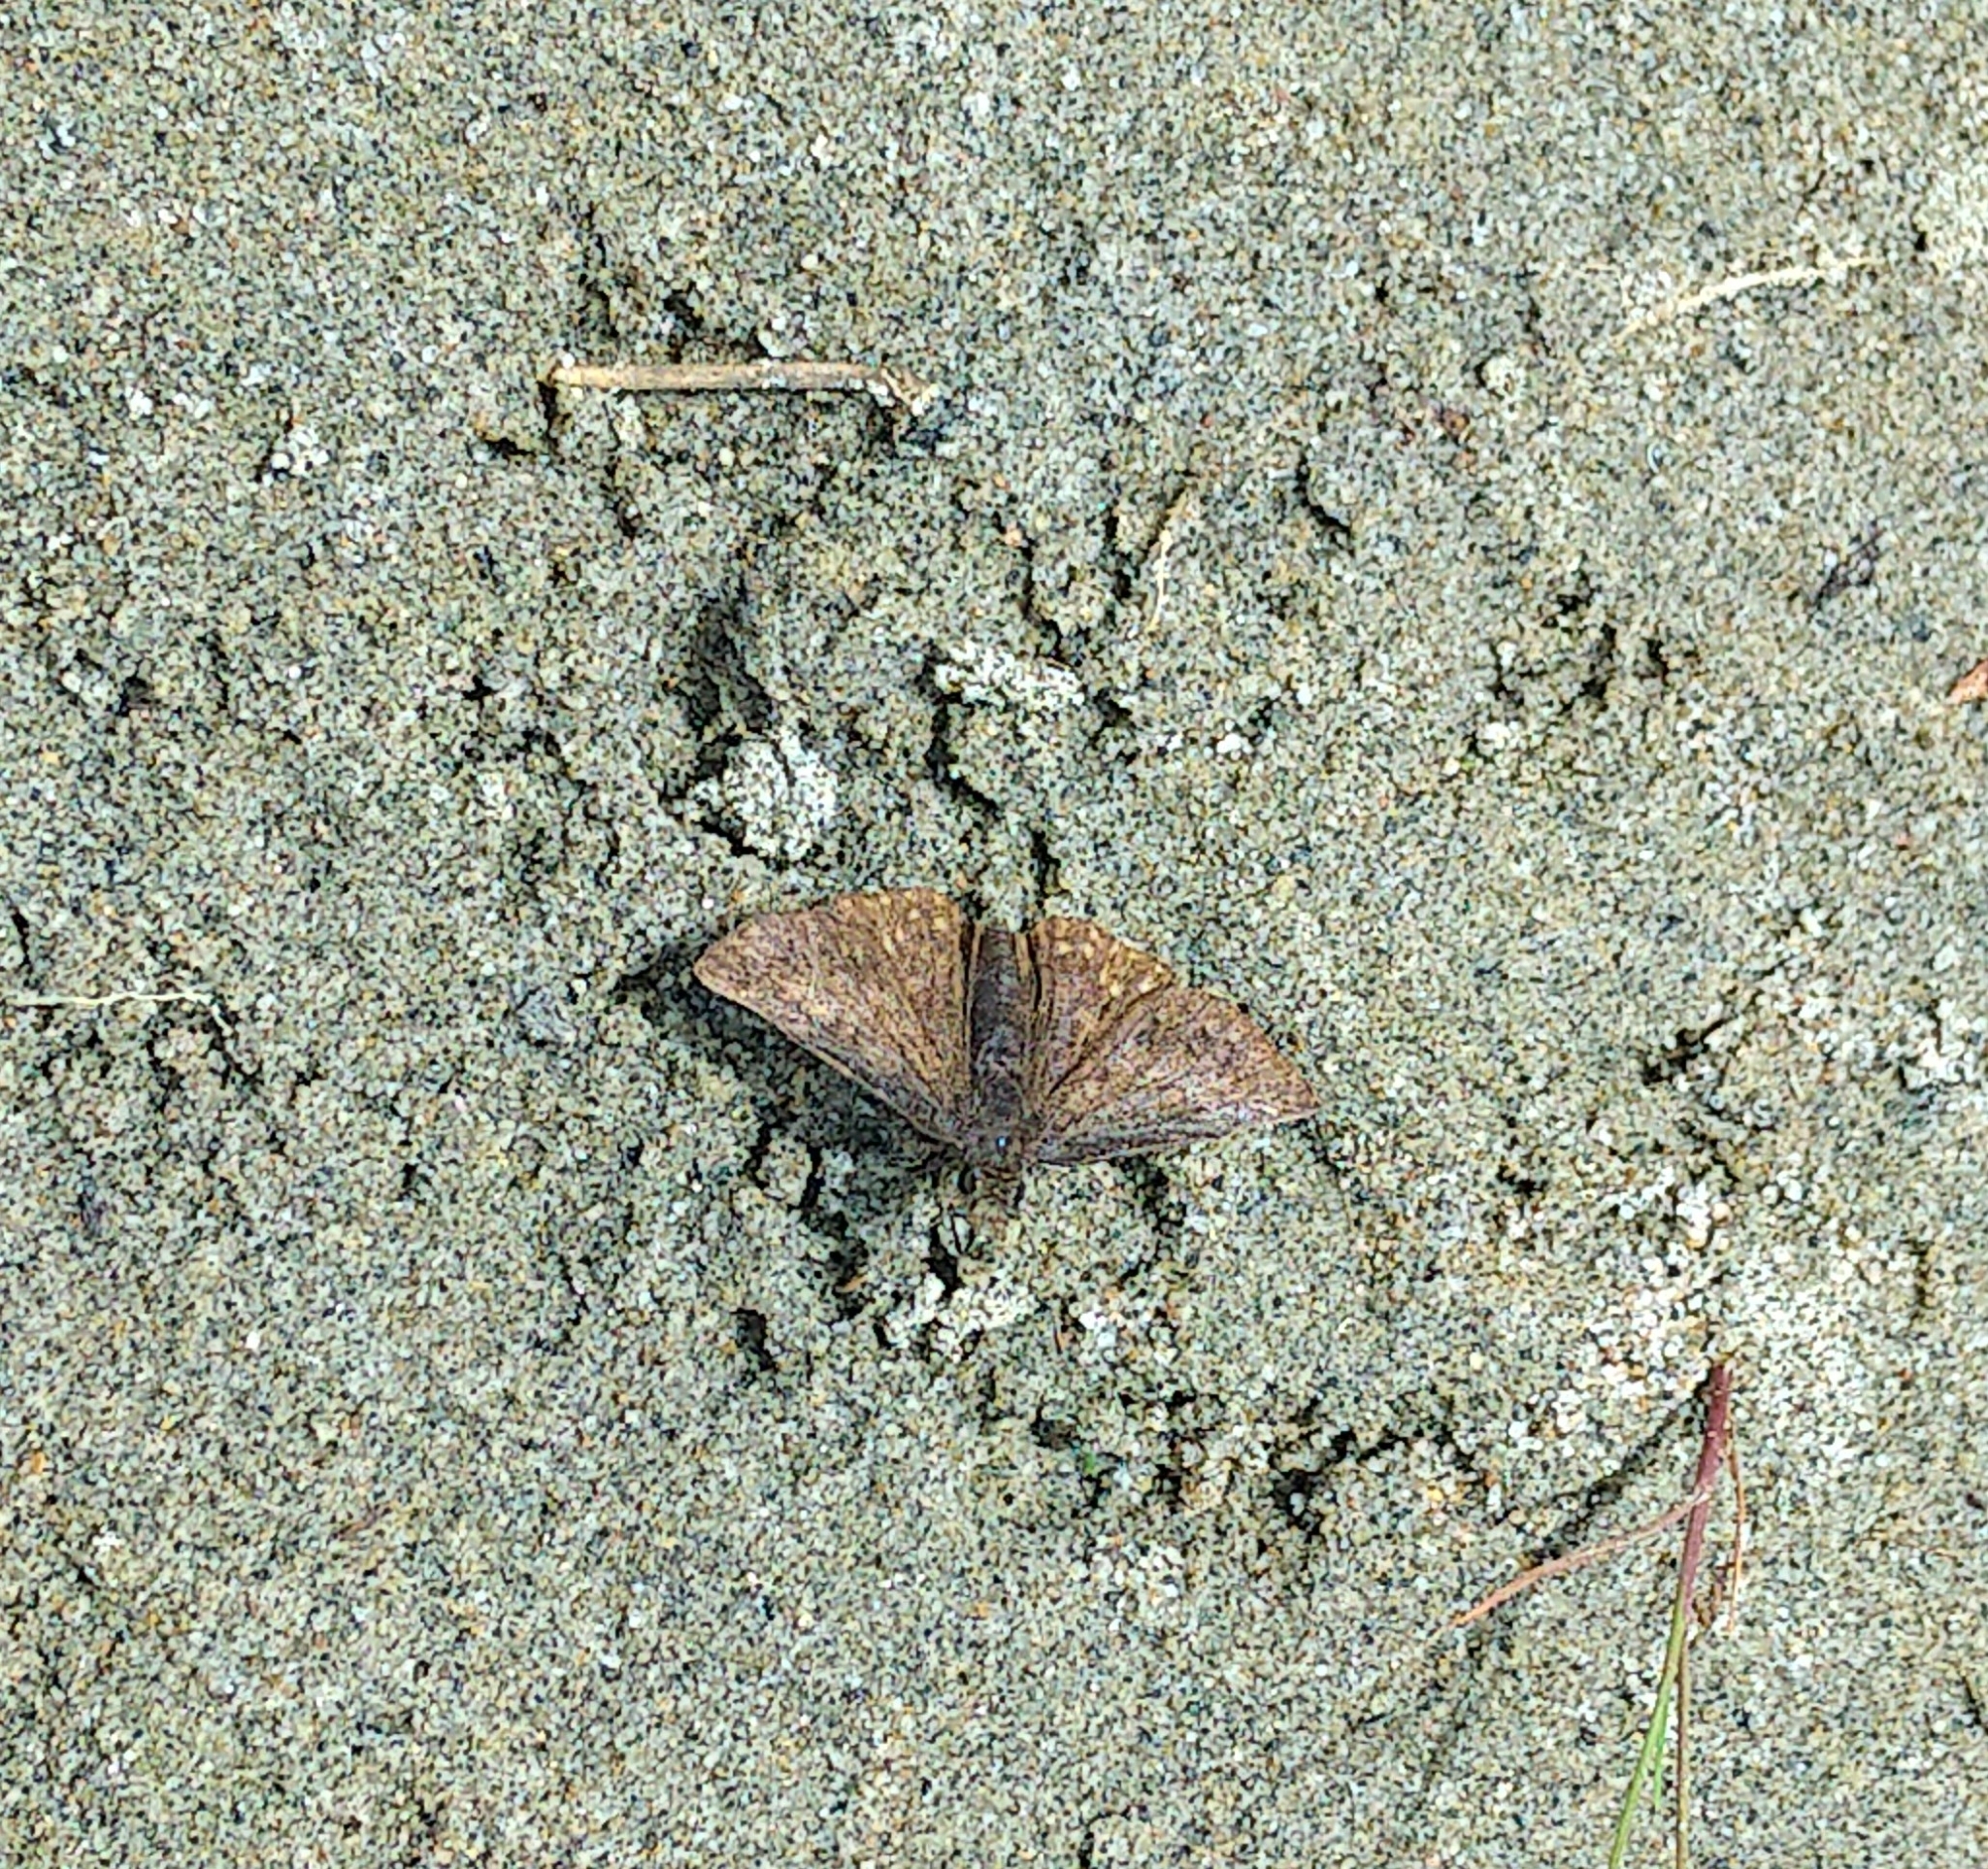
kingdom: Animalia
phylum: Arthropoda
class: Insecta
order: Lepidoptera
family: Hesperiidae
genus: Erynnis
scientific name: Erynnis icelus
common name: Dreamy duskywing
